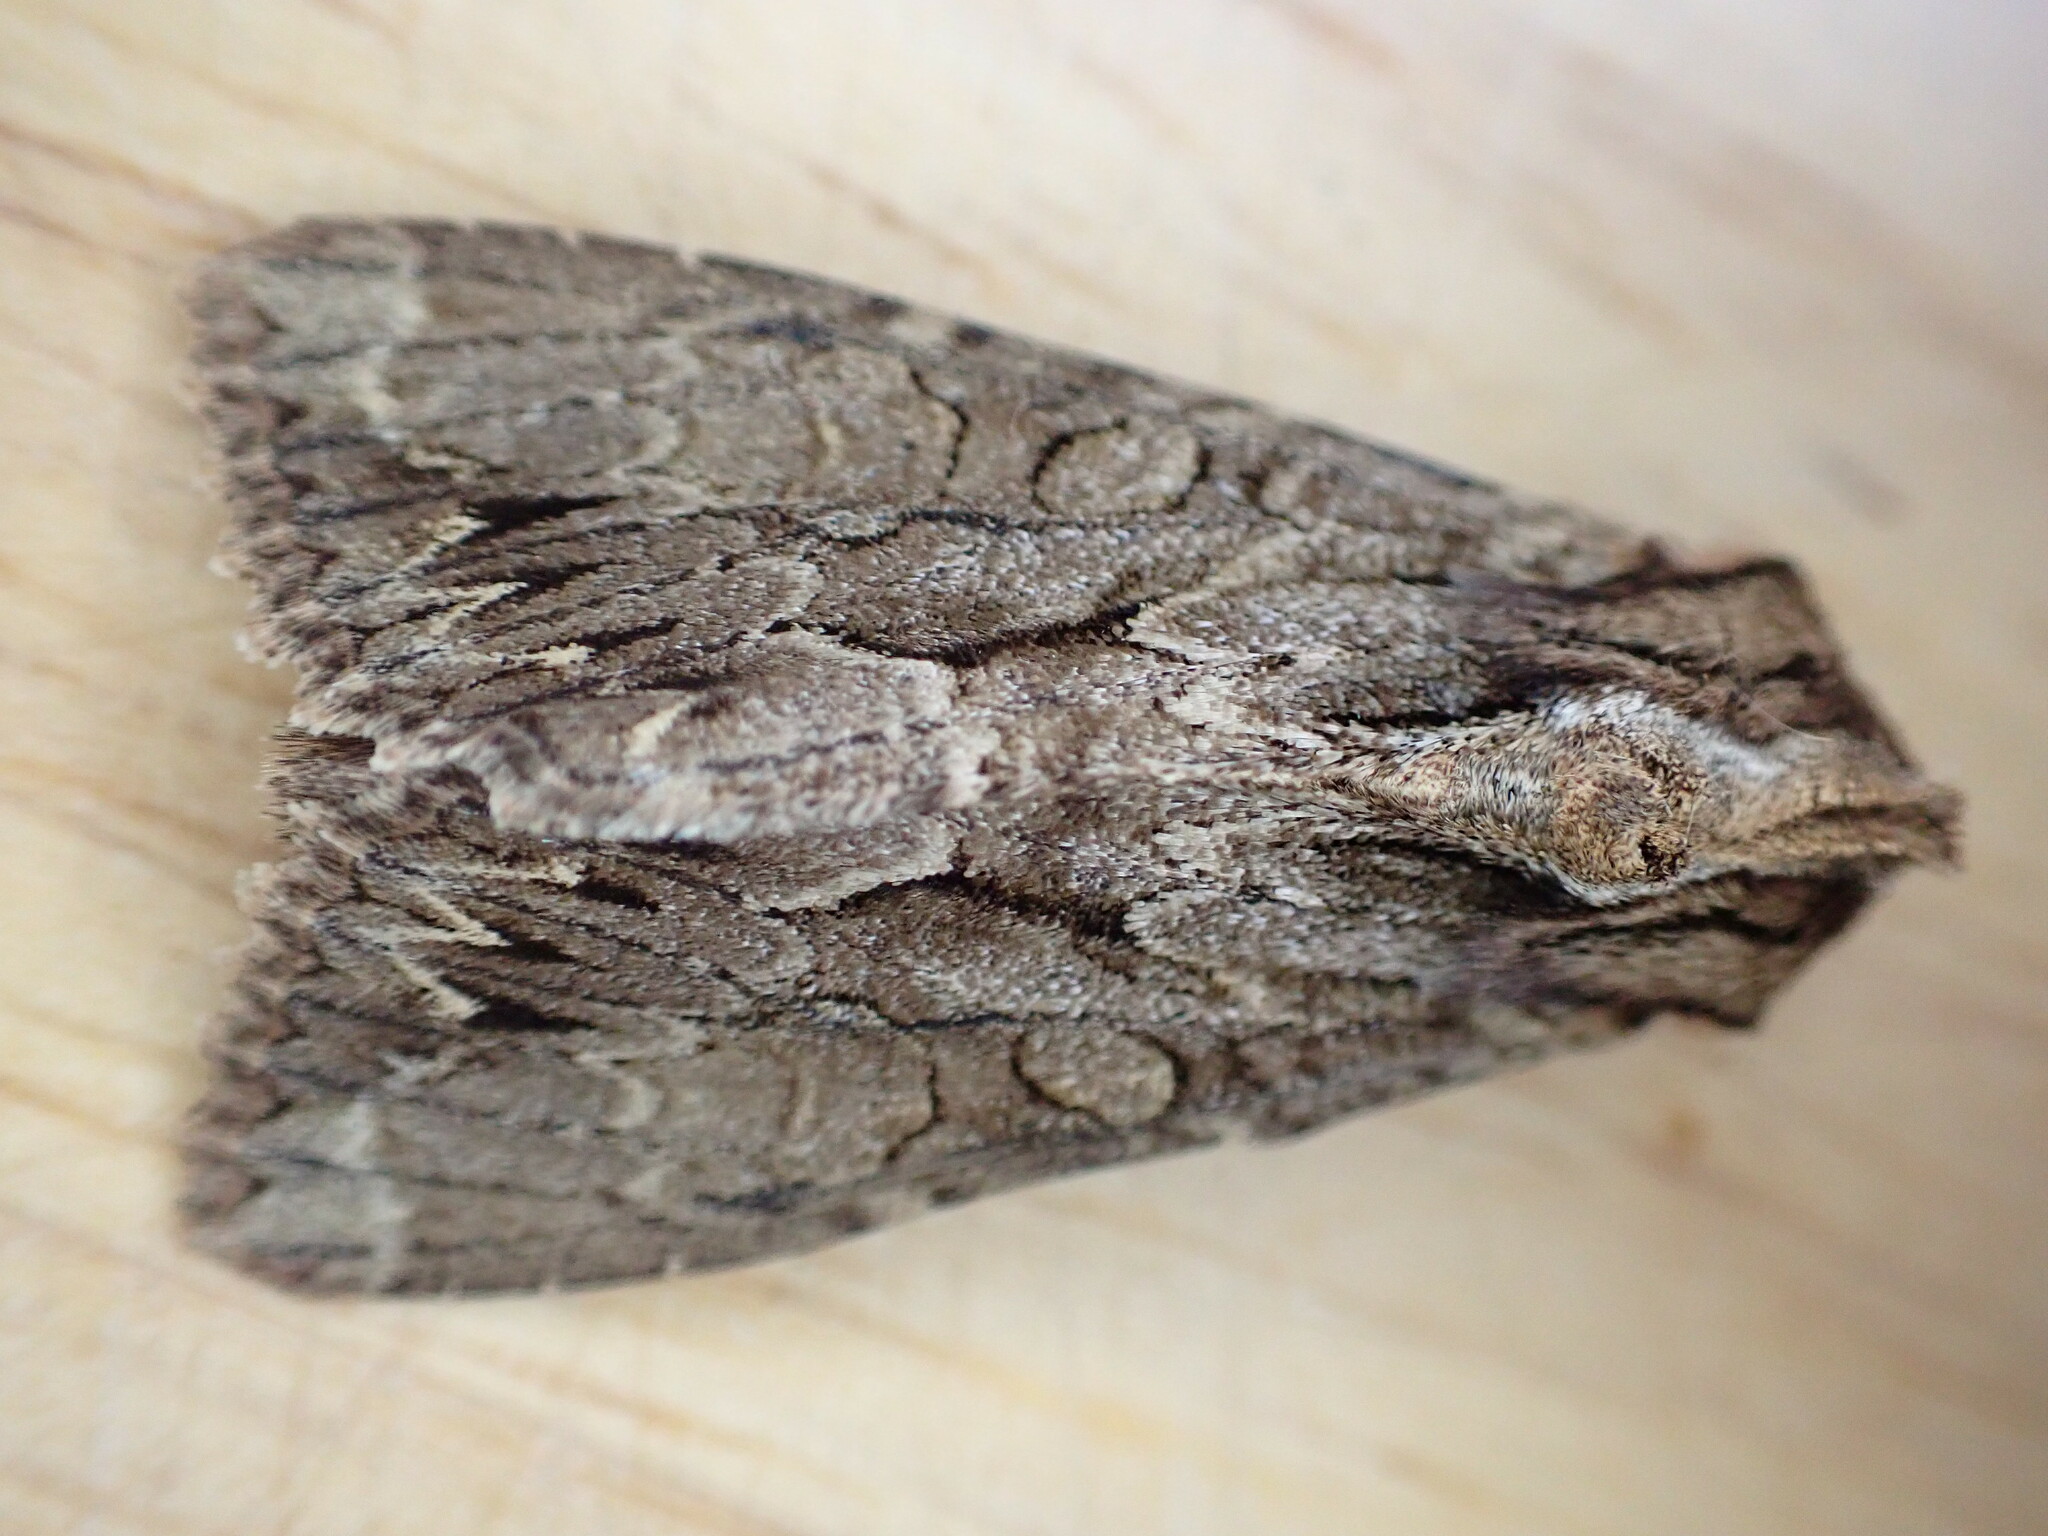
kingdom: Animalia
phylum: Arthropoda
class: Insecta
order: Lepidoptera
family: Noctuidae
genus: Apamea
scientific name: Apamea monoglypha
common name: Dark arches
